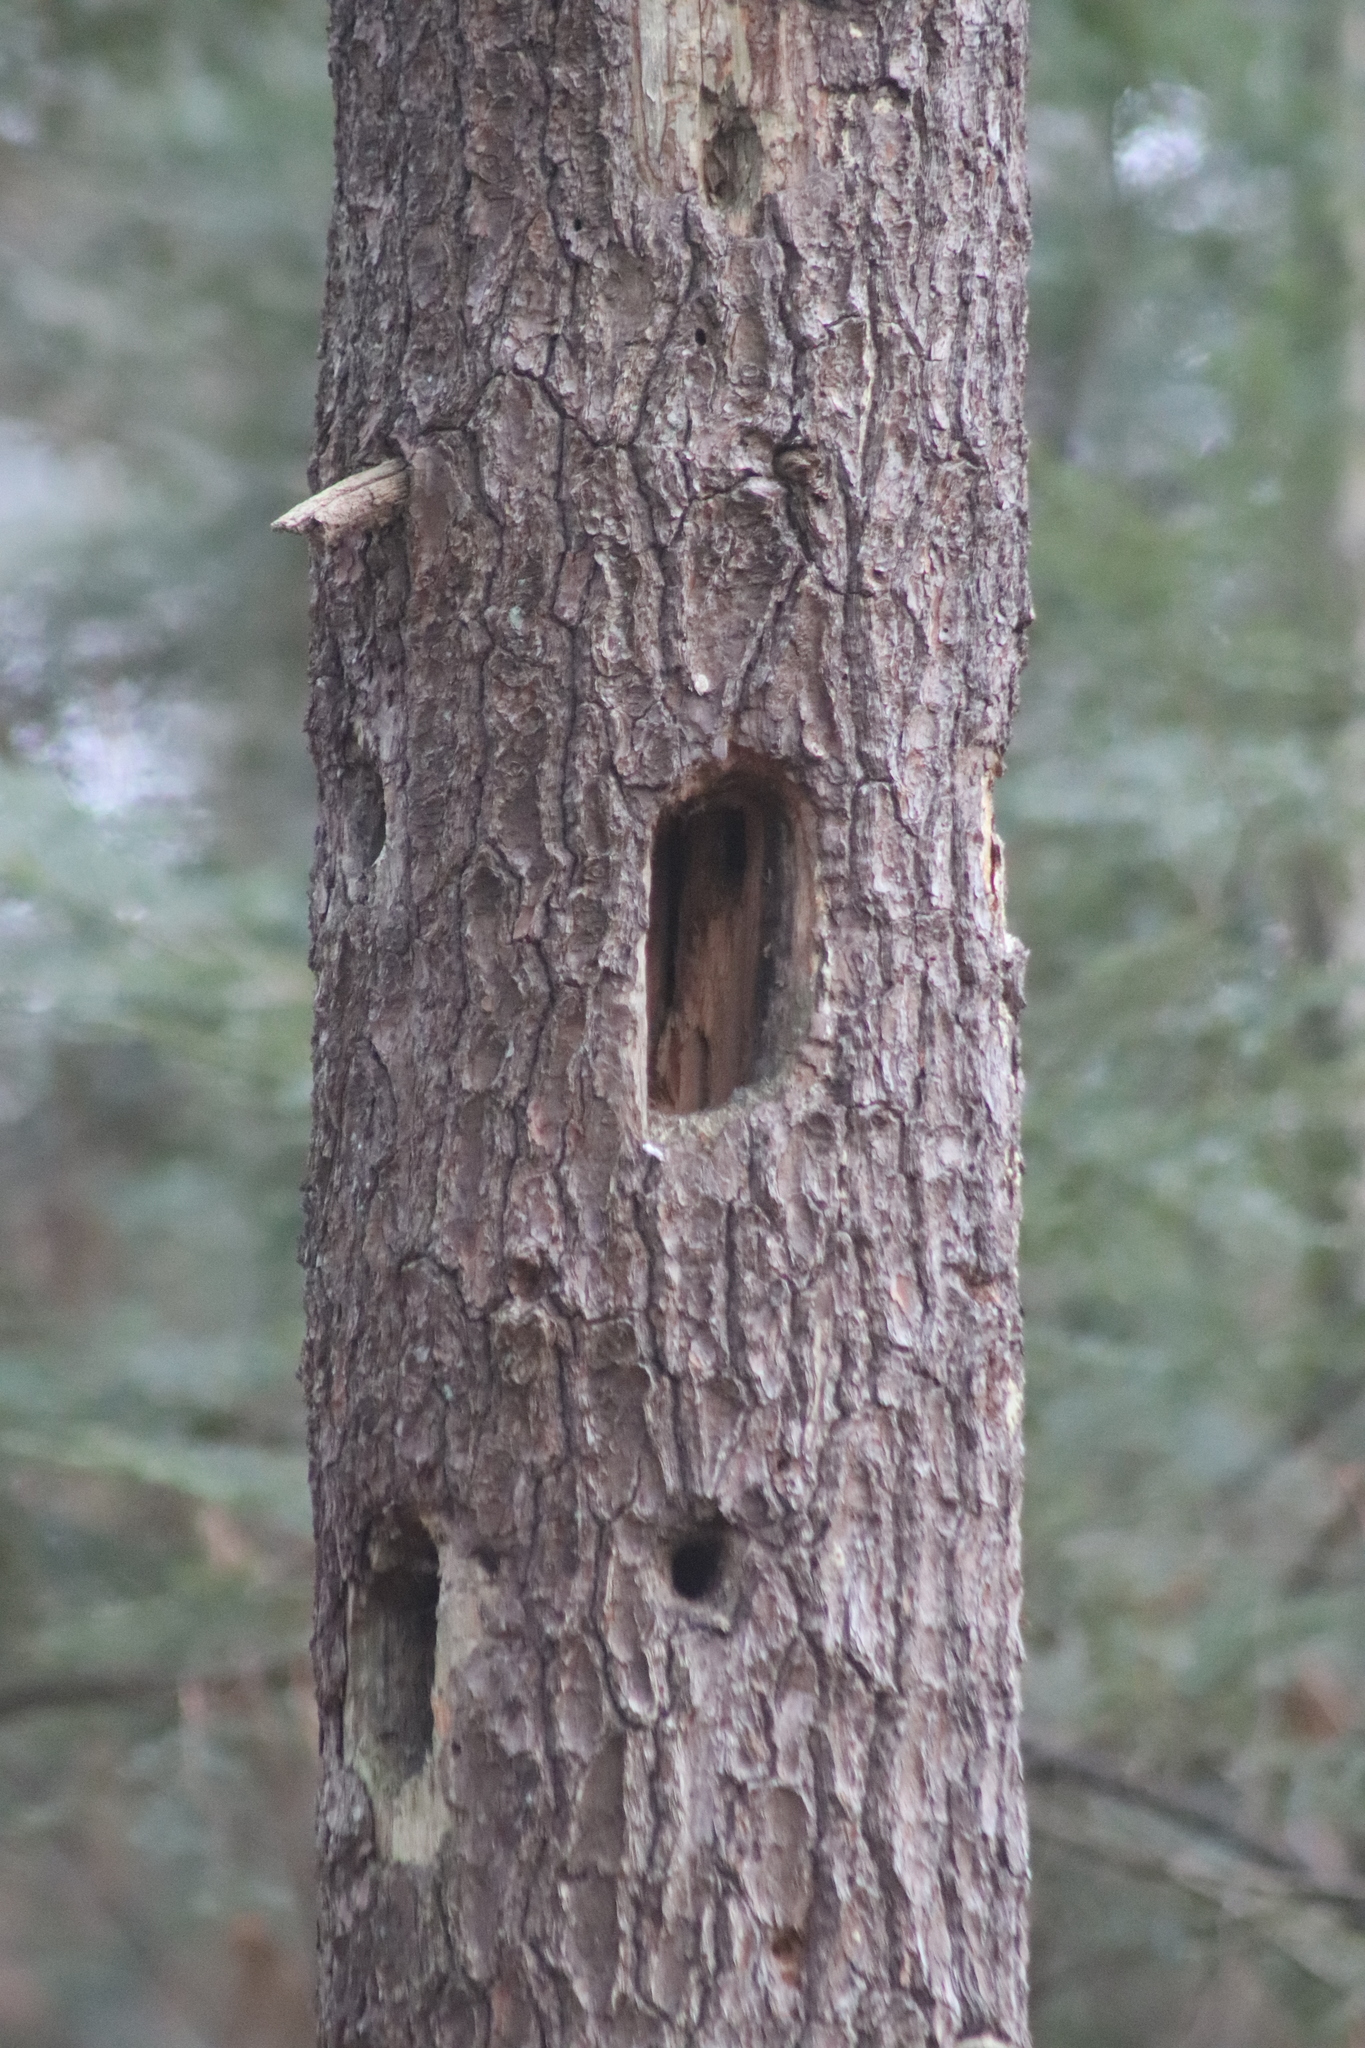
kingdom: Animalia
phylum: Chordata
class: Aves
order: Piciformes
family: Picidae
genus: Dryocopus
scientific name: Dryocopus pileatus
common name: Pileated woodpecker
